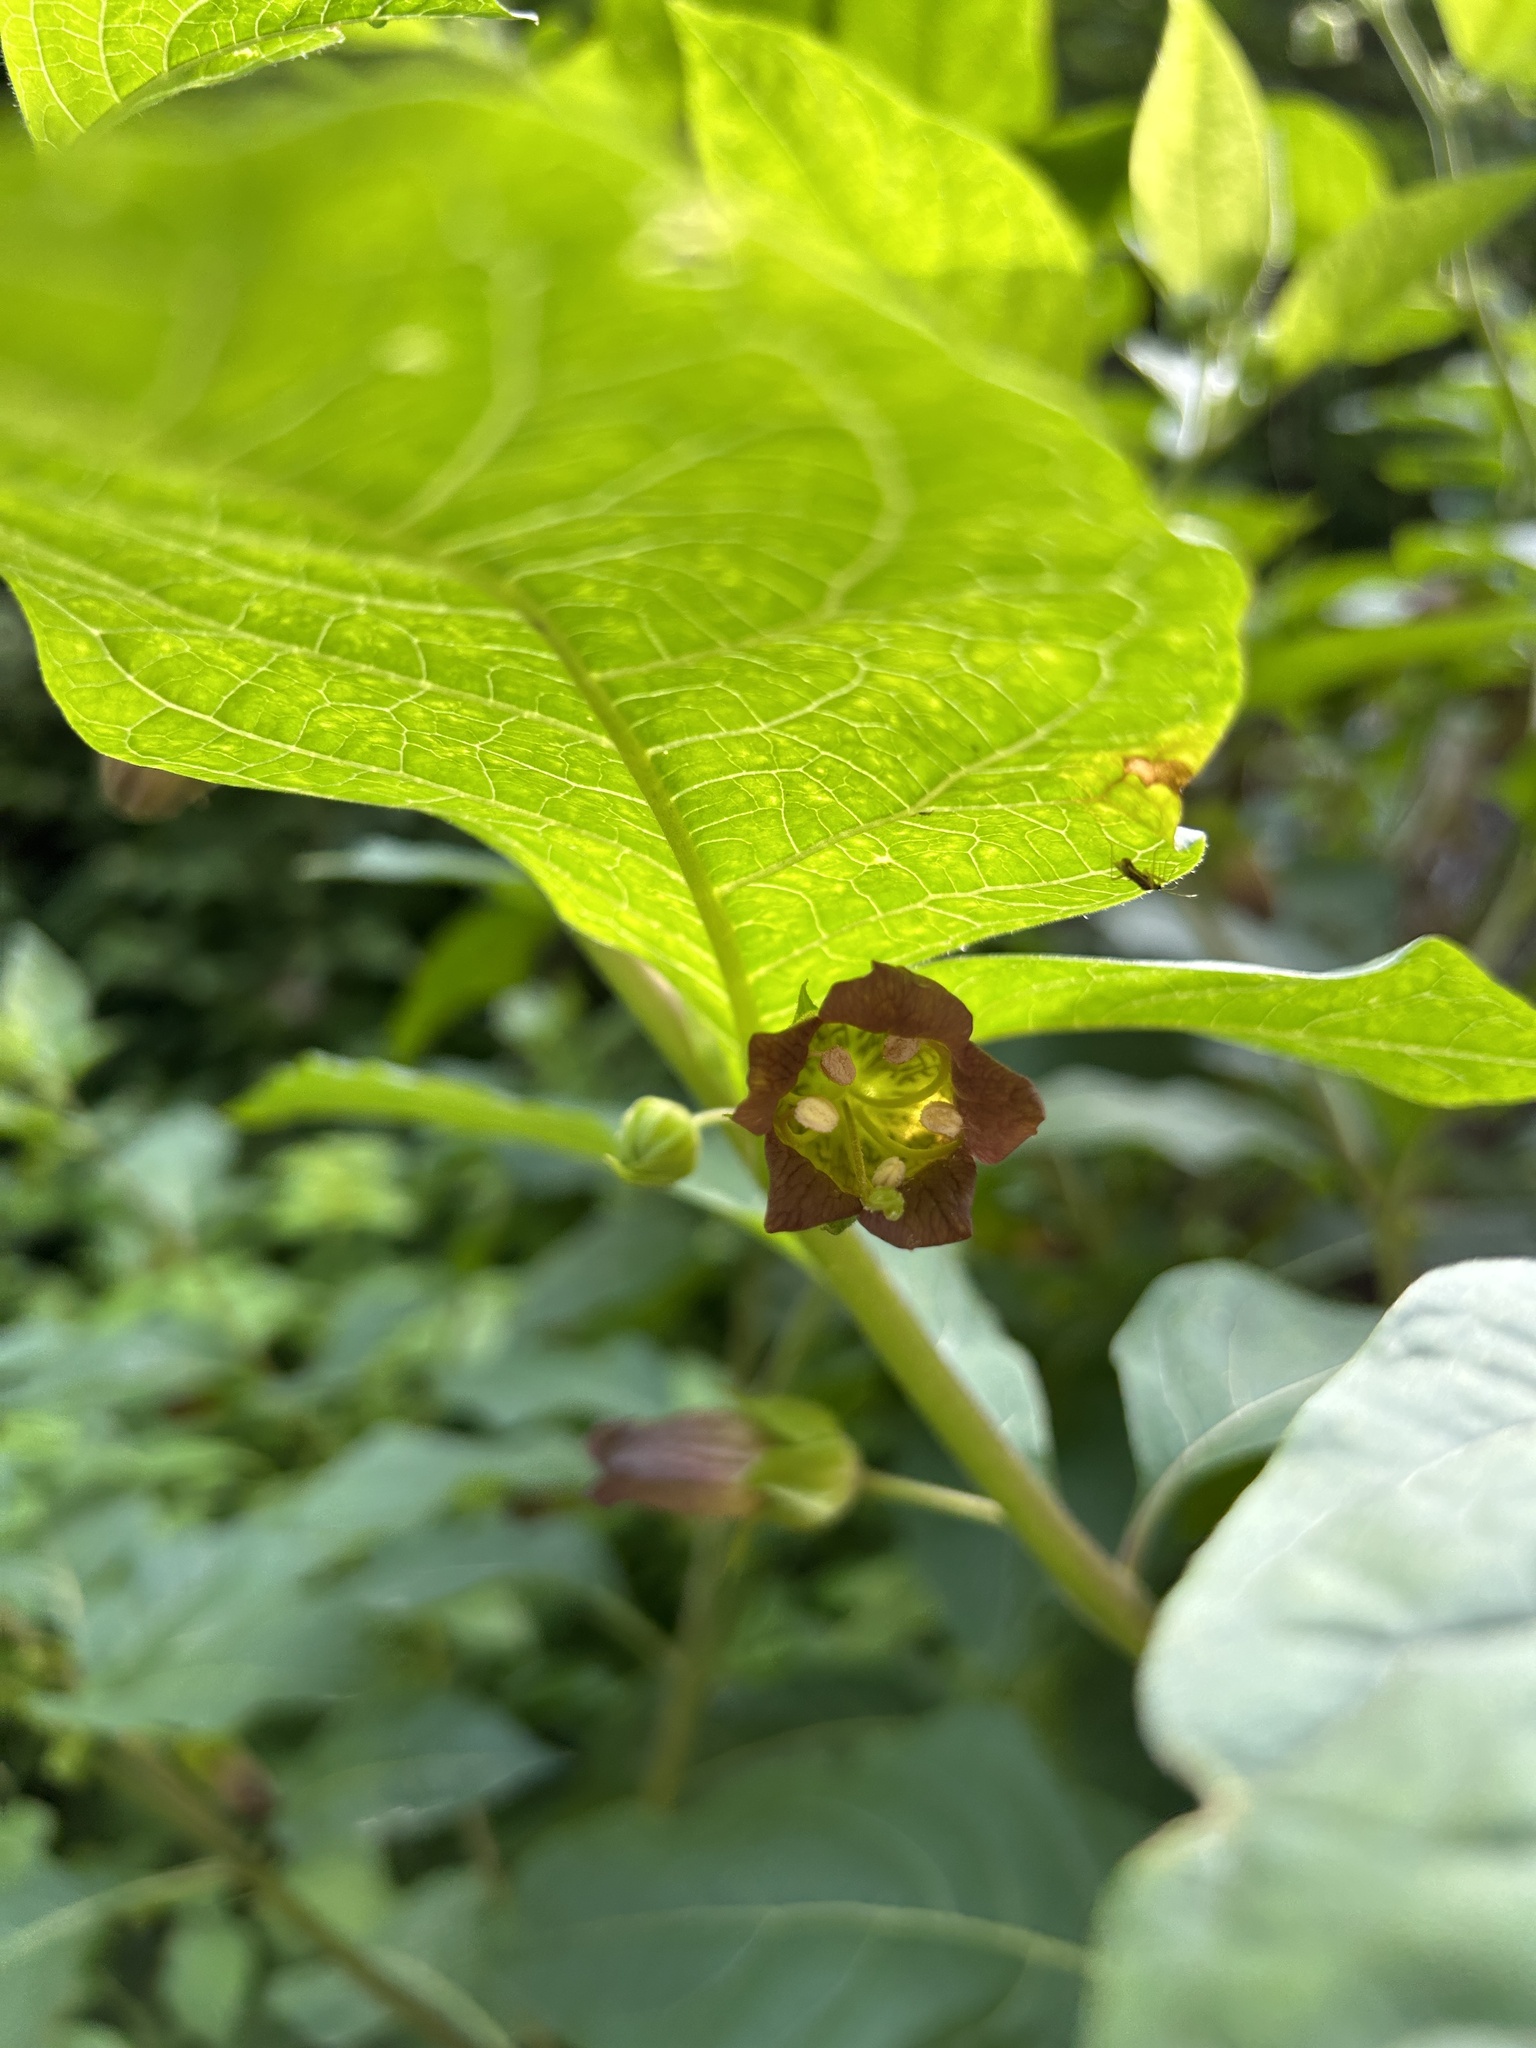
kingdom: Plantae
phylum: Tracheophyta
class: Magnoliopsida
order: Solanales
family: Solanaceae
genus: Atropa
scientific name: Atropa belladonna
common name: Deadly nightshade
